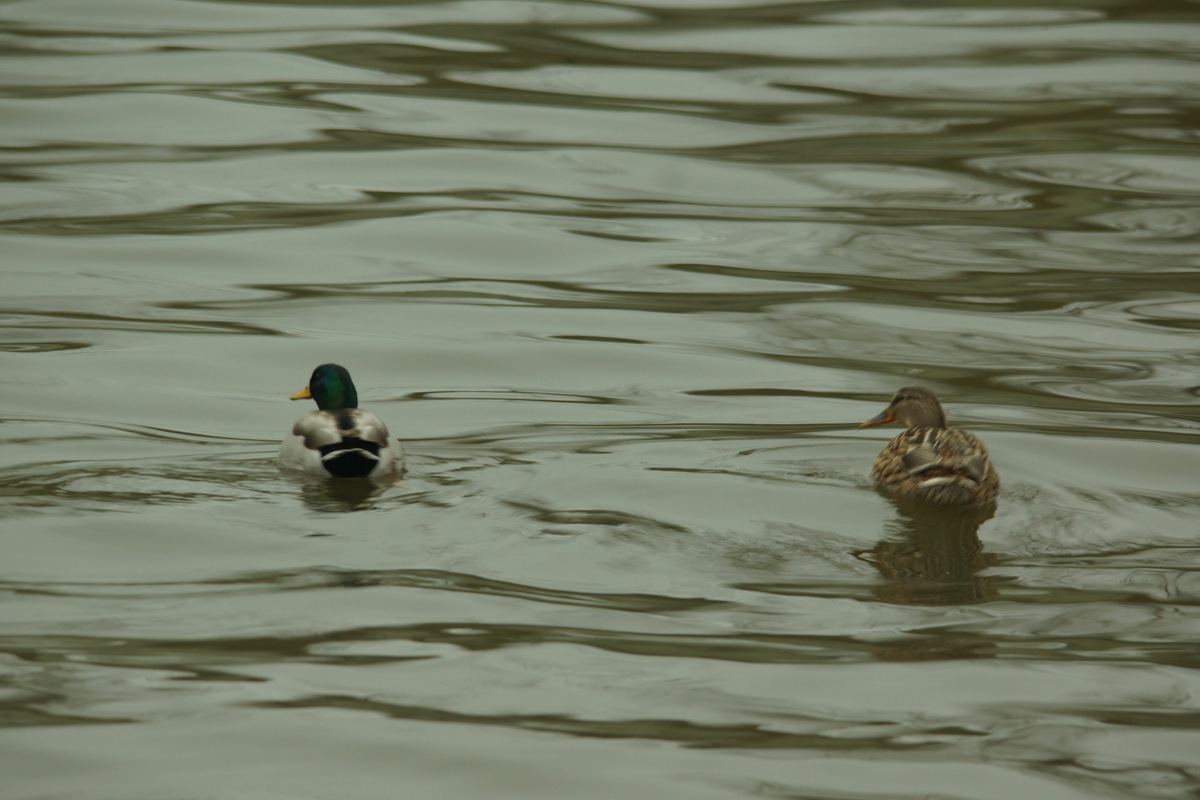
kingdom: Animalia
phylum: Chordata
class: Aves
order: Anseriformes
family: Anatidae
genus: Anas
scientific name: Anas platyrhynchos
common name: Mallard
